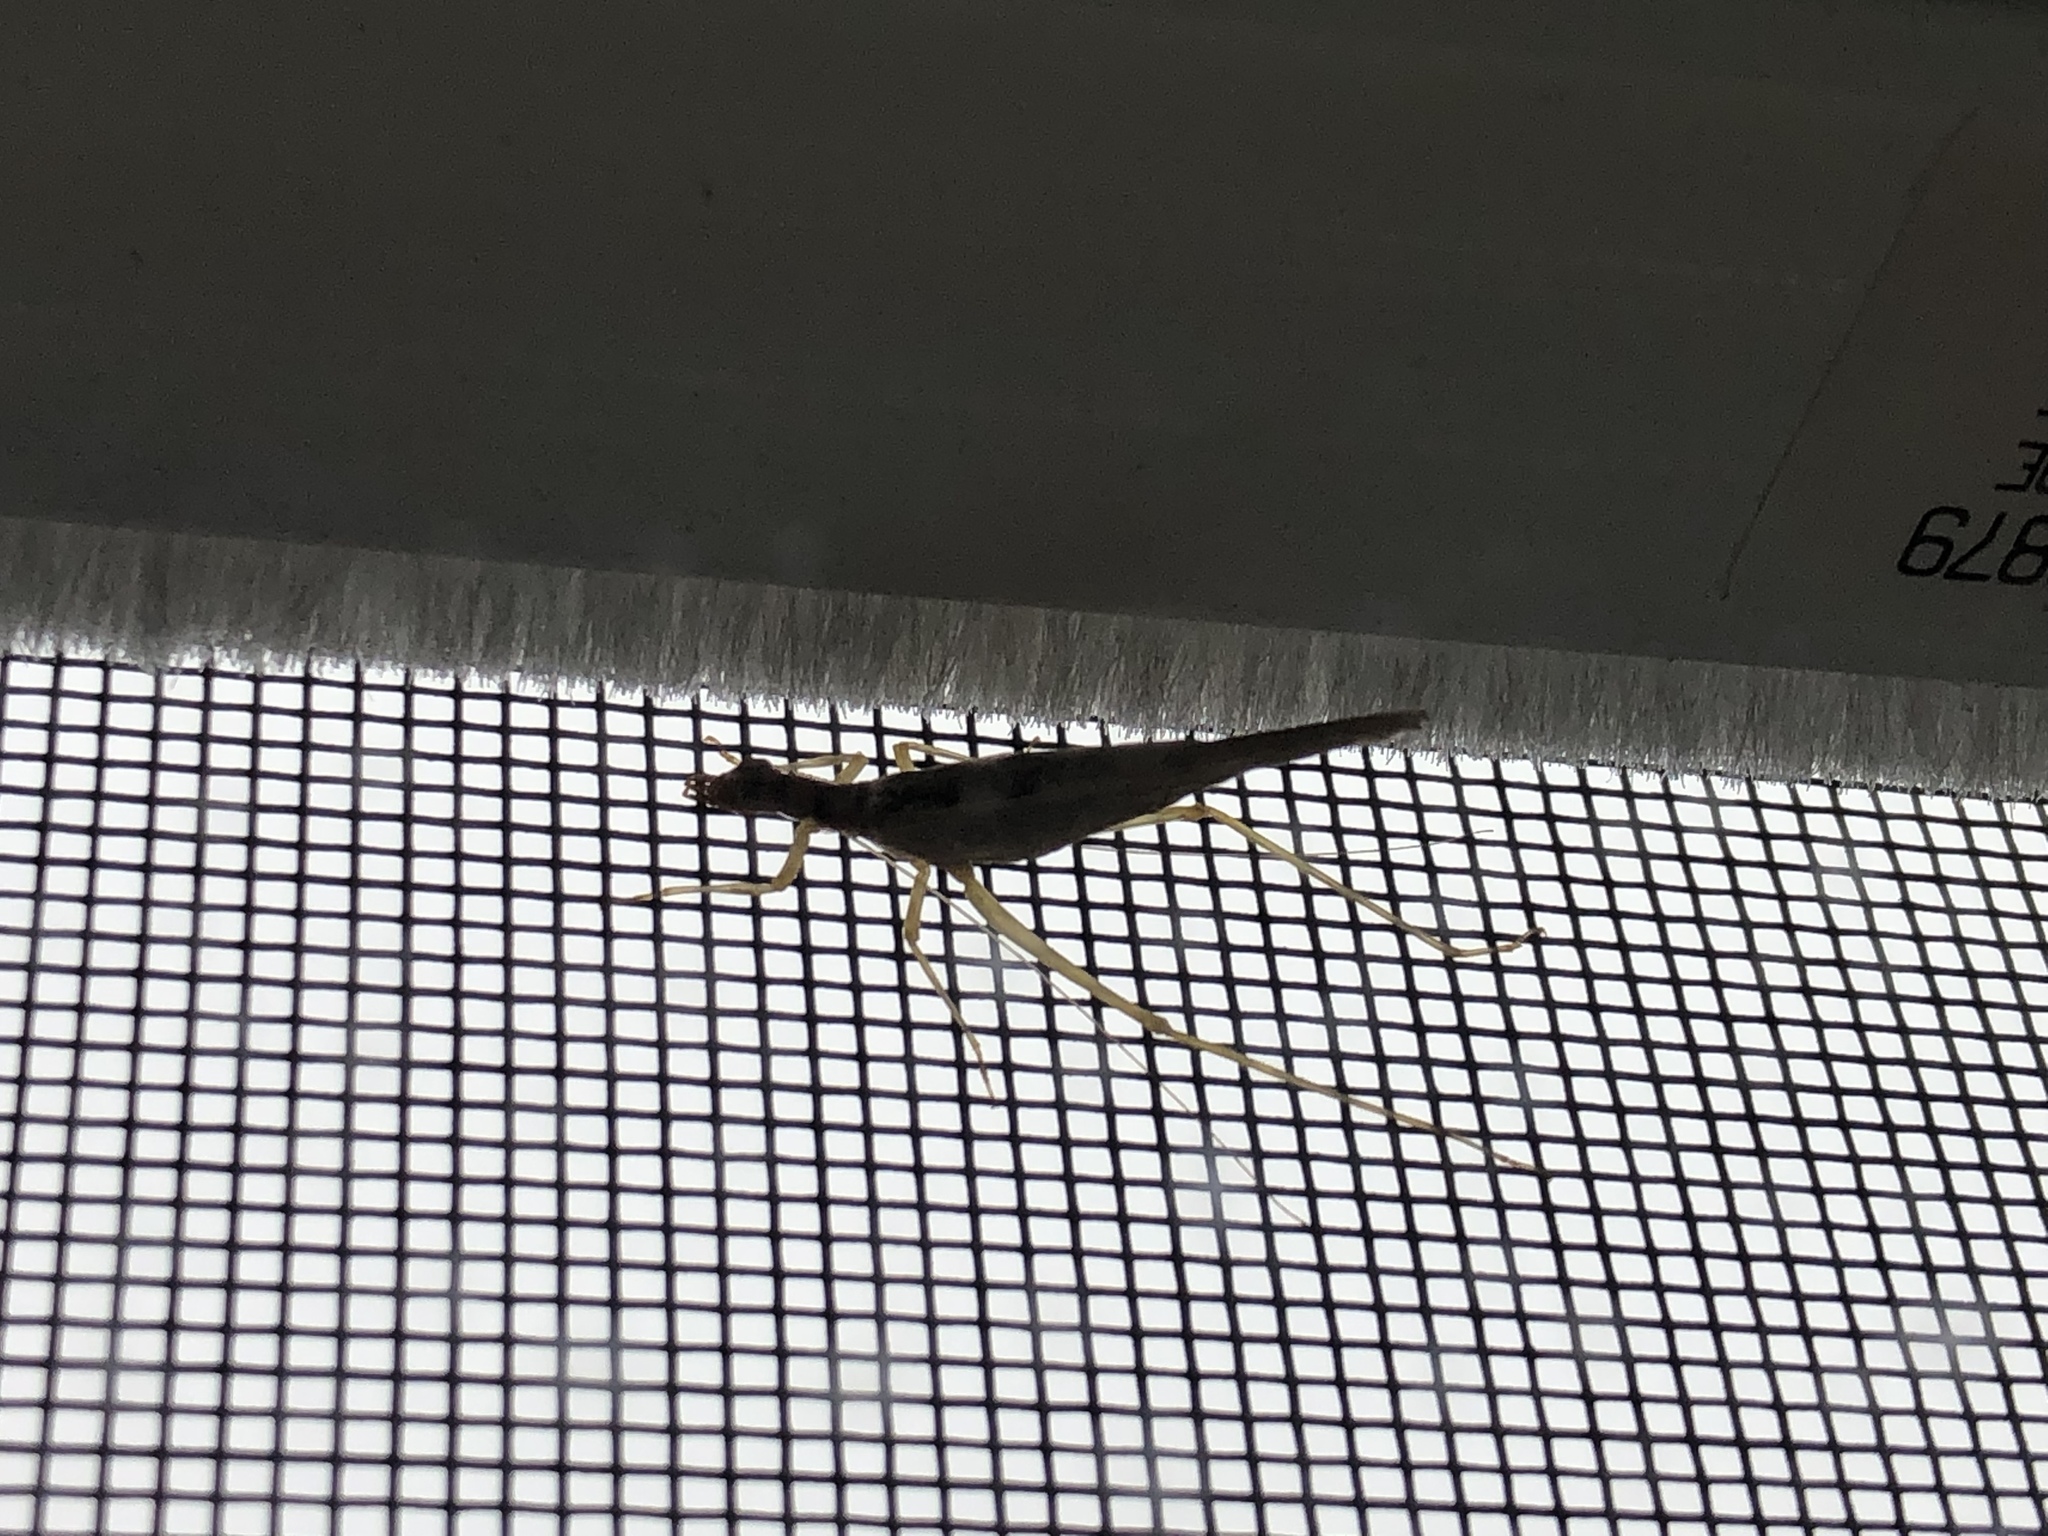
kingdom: Animalia
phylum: Arthropoda
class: Insecta
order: Orthoptera
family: Gryllidae
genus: Neoxabea
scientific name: Neoxabea bipunctata
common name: Two-spotted tree cricket
